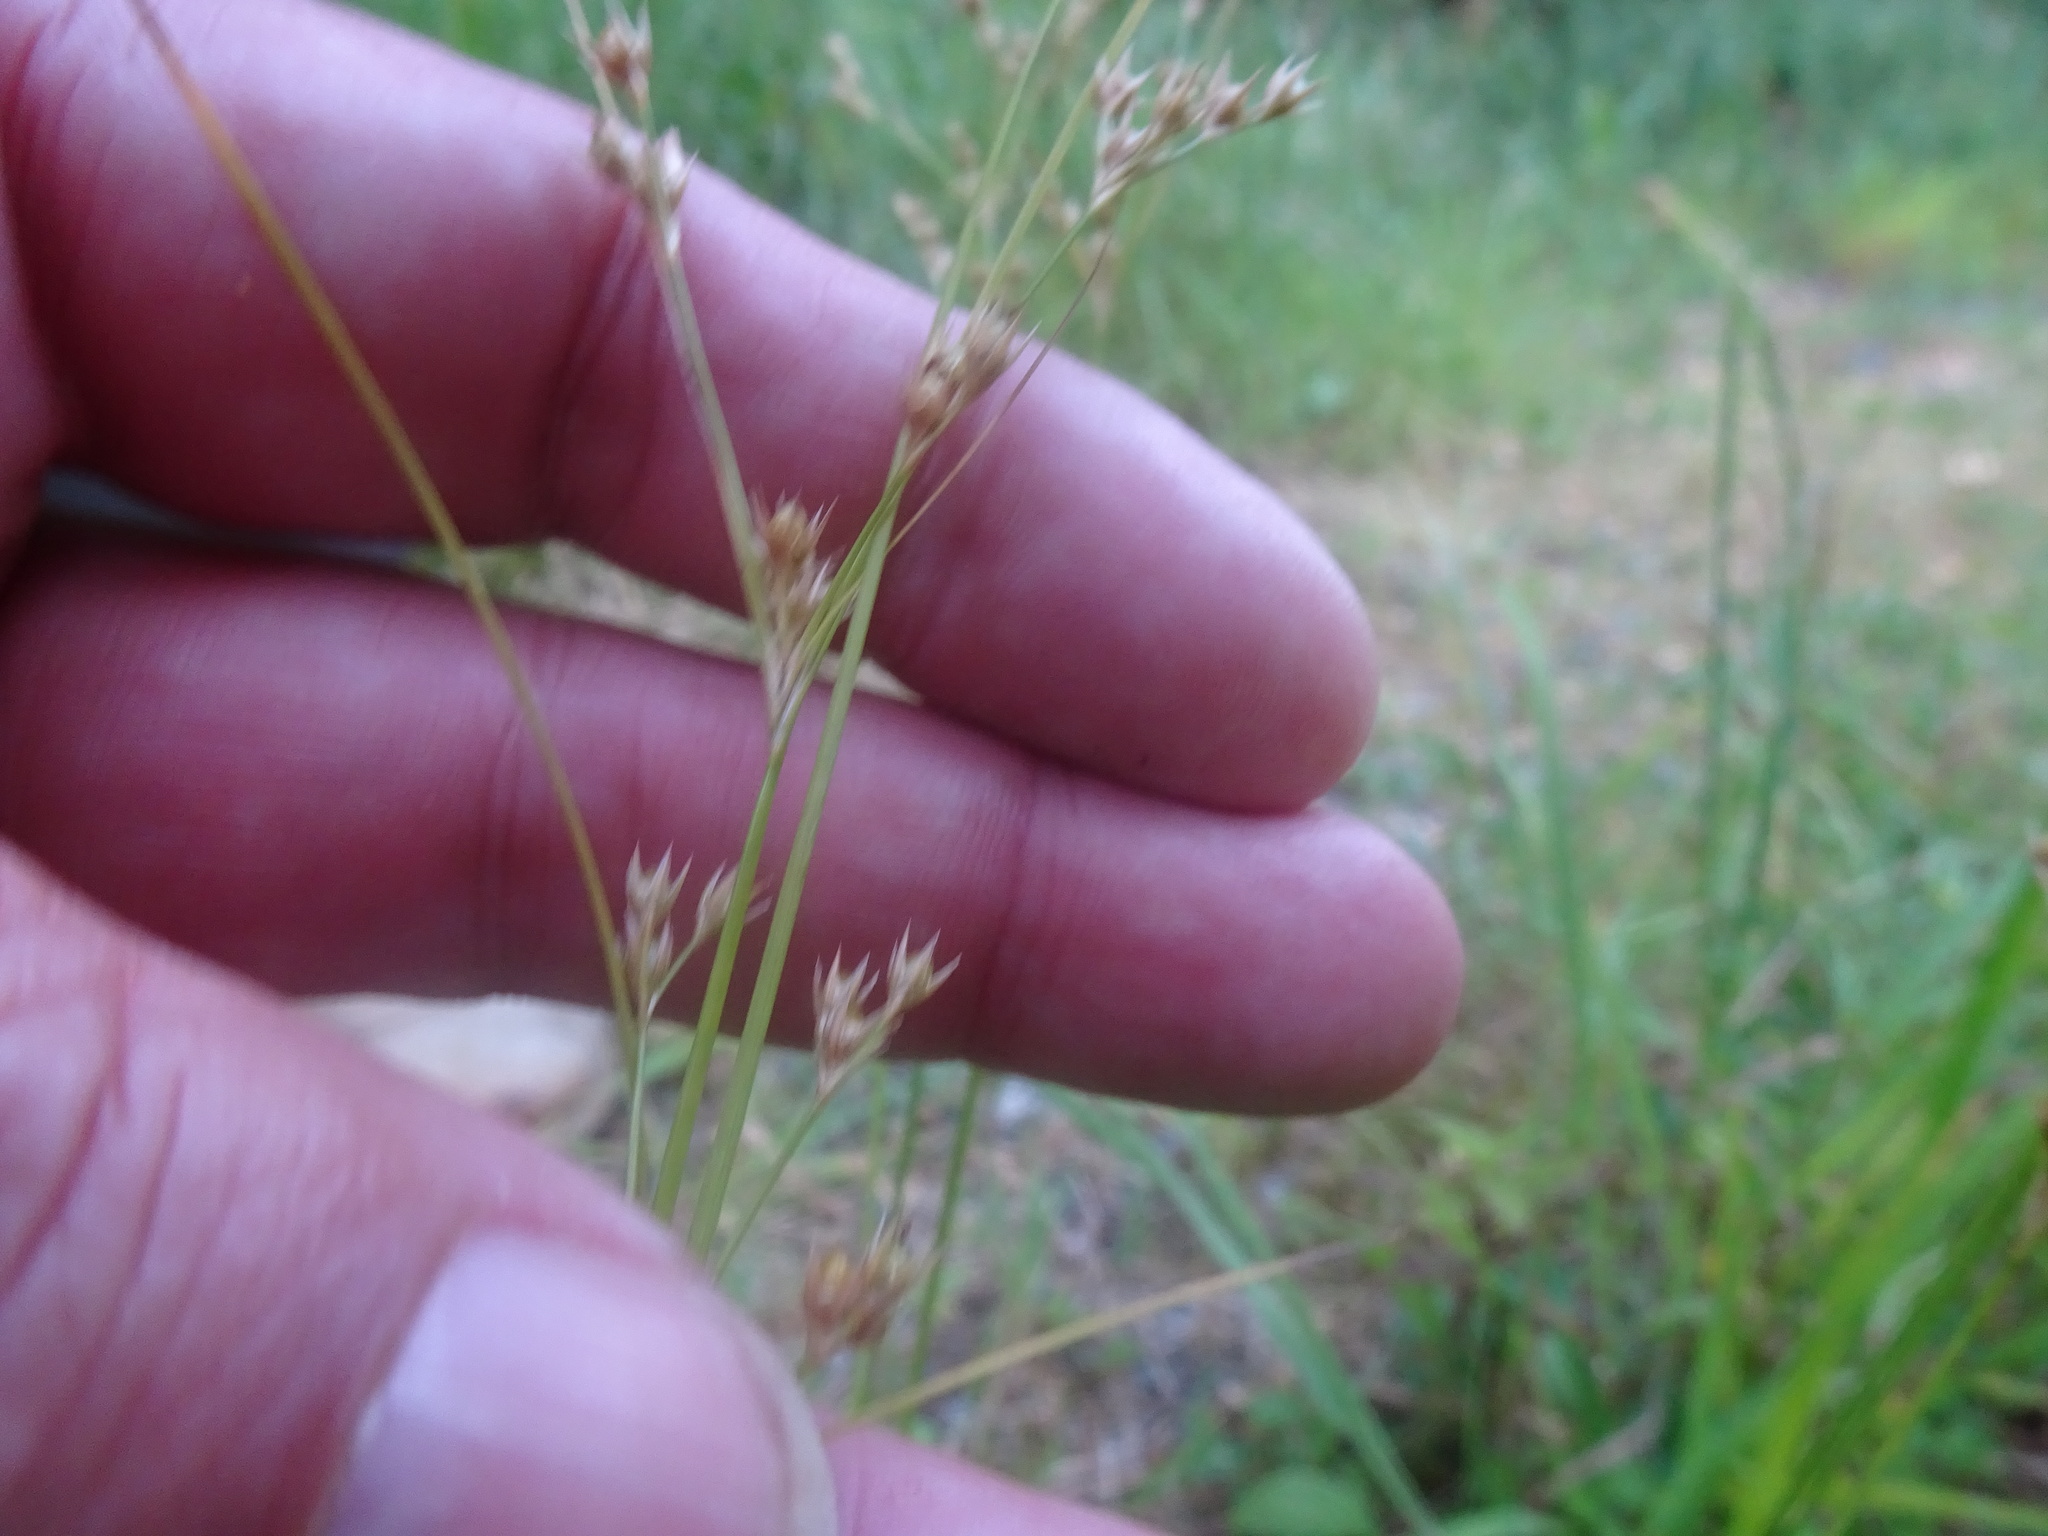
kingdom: Plantae
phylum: Tracheophyta
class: Liliopsida
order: Poales
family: Juncaceae
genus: Juncus
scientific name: Juncus tenuis
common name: Slender rush
